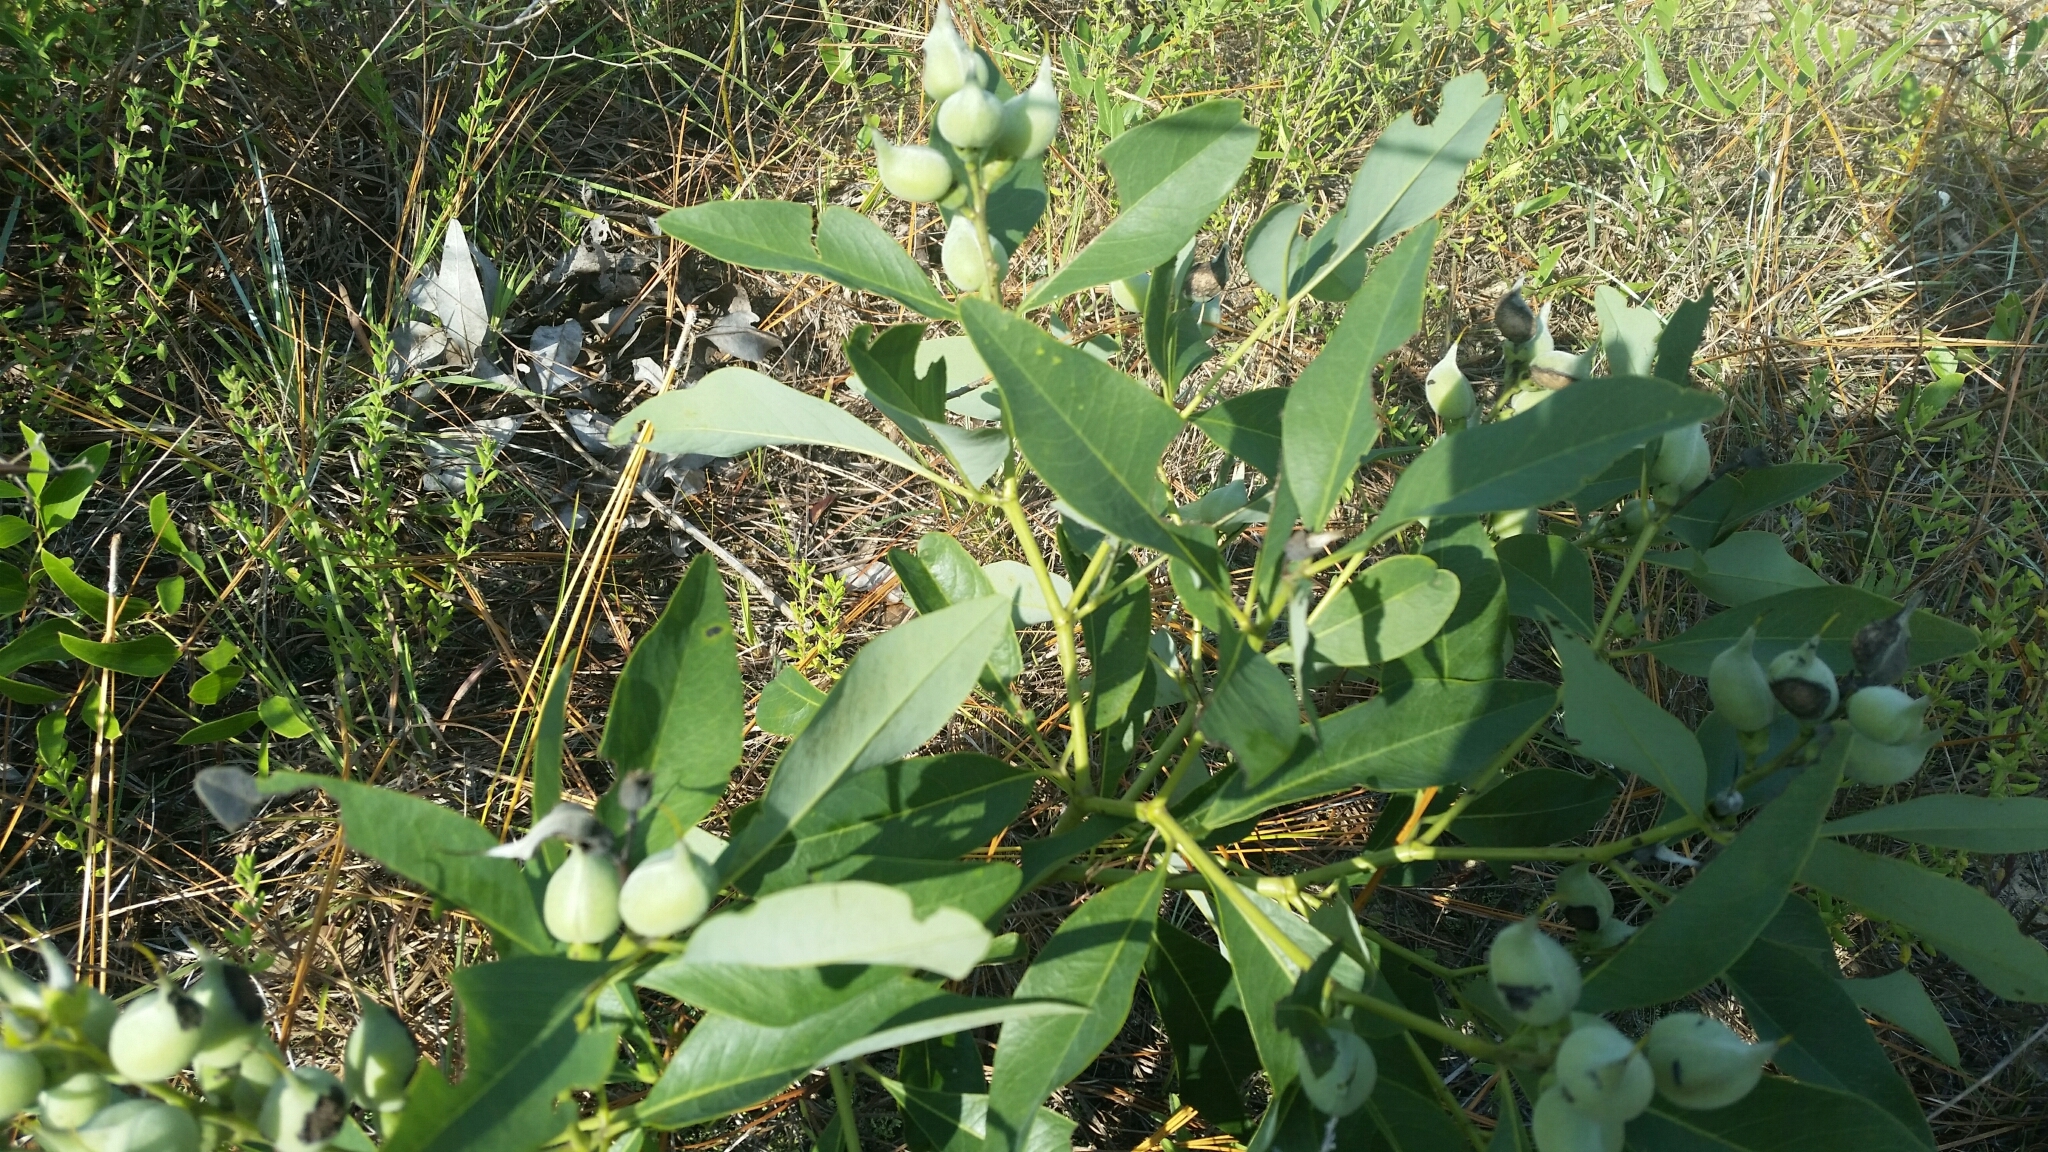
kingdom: Plantae
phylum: Tracheophyta
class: Magnoliopsida
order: Fabales
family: Fabaceae
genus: Baptisia
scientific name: Baptisia lanceolata
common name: Gopherweed
